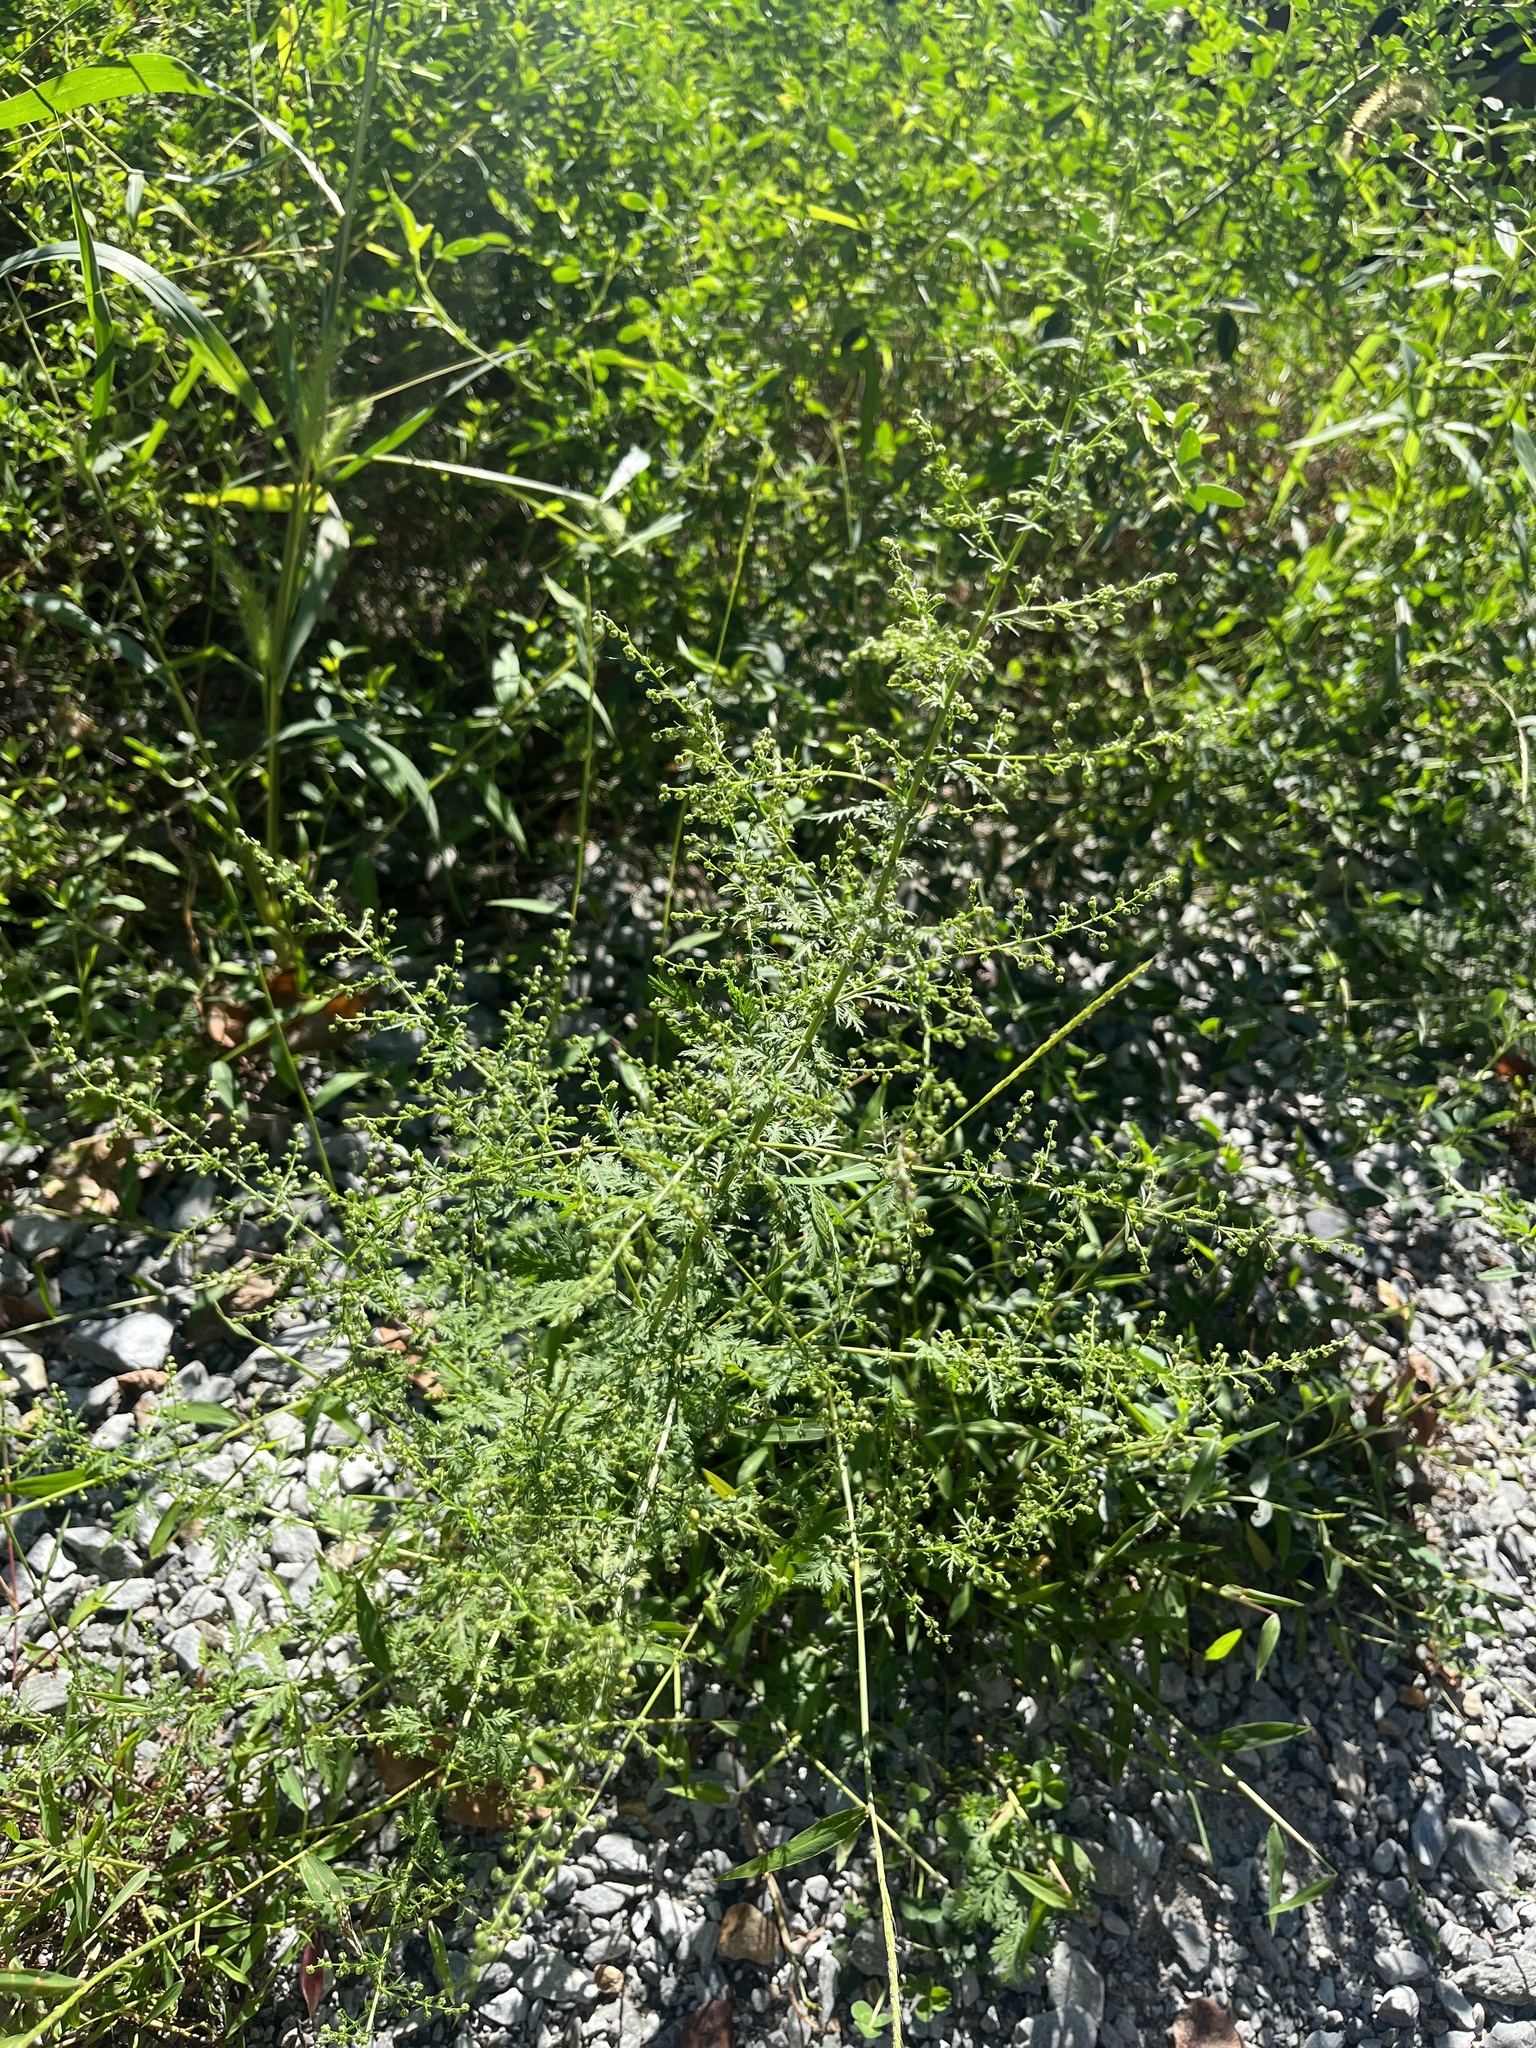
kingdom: Plantae
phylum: Tracheophyta
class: Magnoliopsida
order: Asterales
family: Asteraceae
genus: Artemisia
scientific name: Artemisia annua
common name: Sweet sagewort
